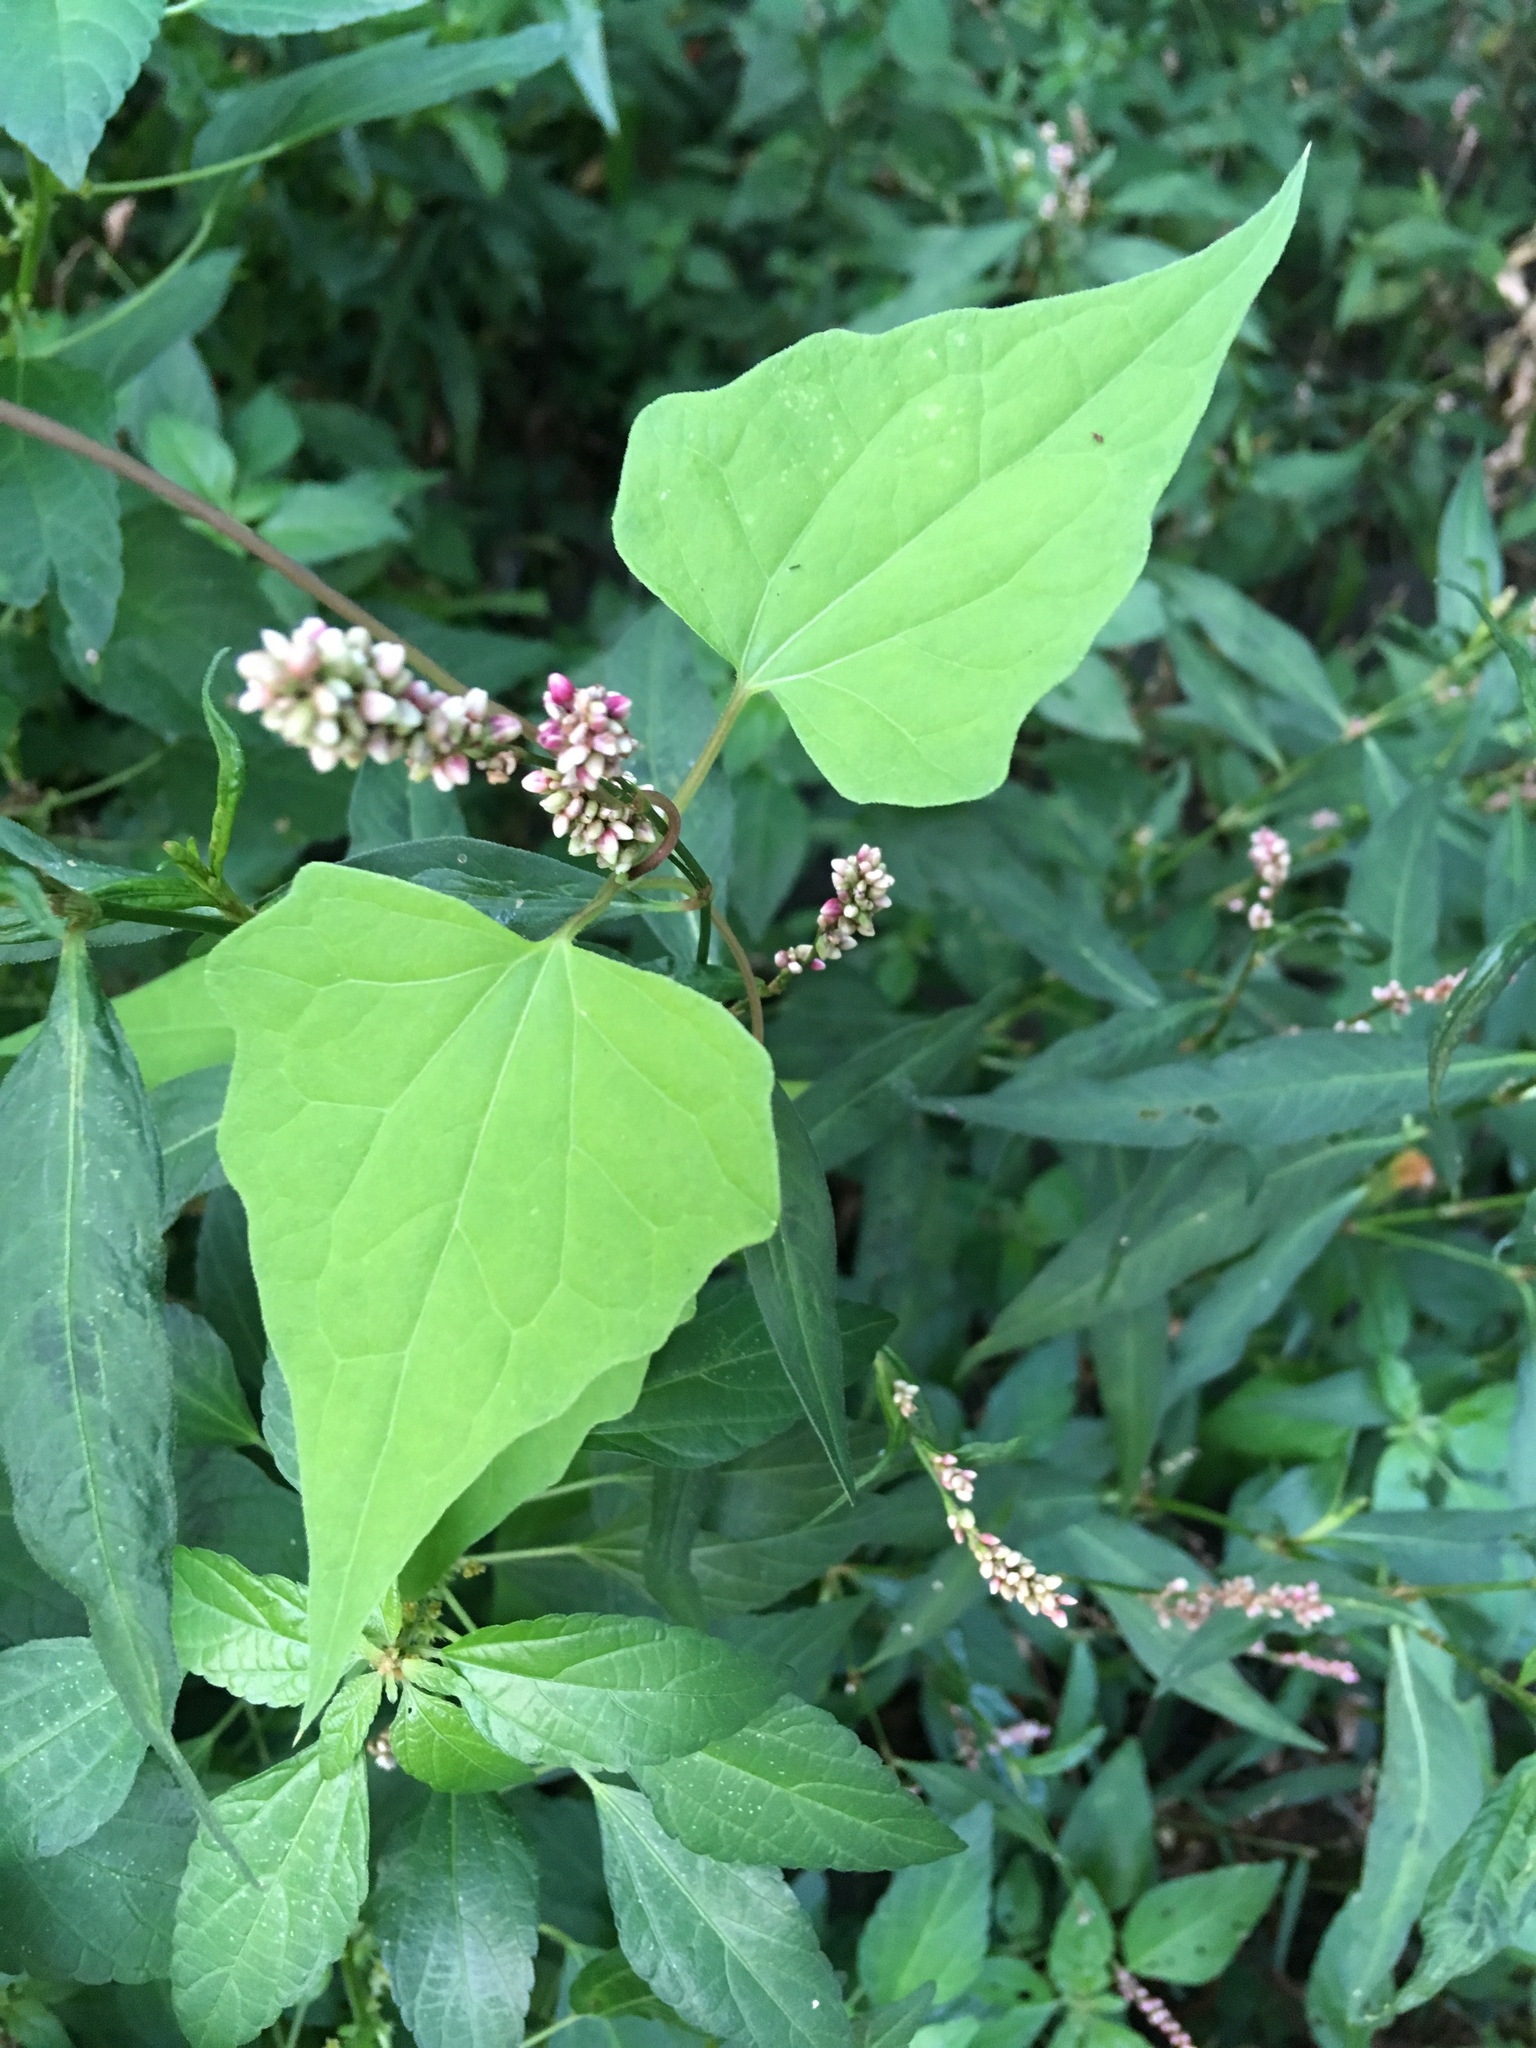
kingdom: Plantae
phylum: Tracheophyta
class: Magnoliopsida
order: Asterales
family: Asteraceae
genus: Mikania
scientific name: Mikania scandens
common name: Climbing hempvine
